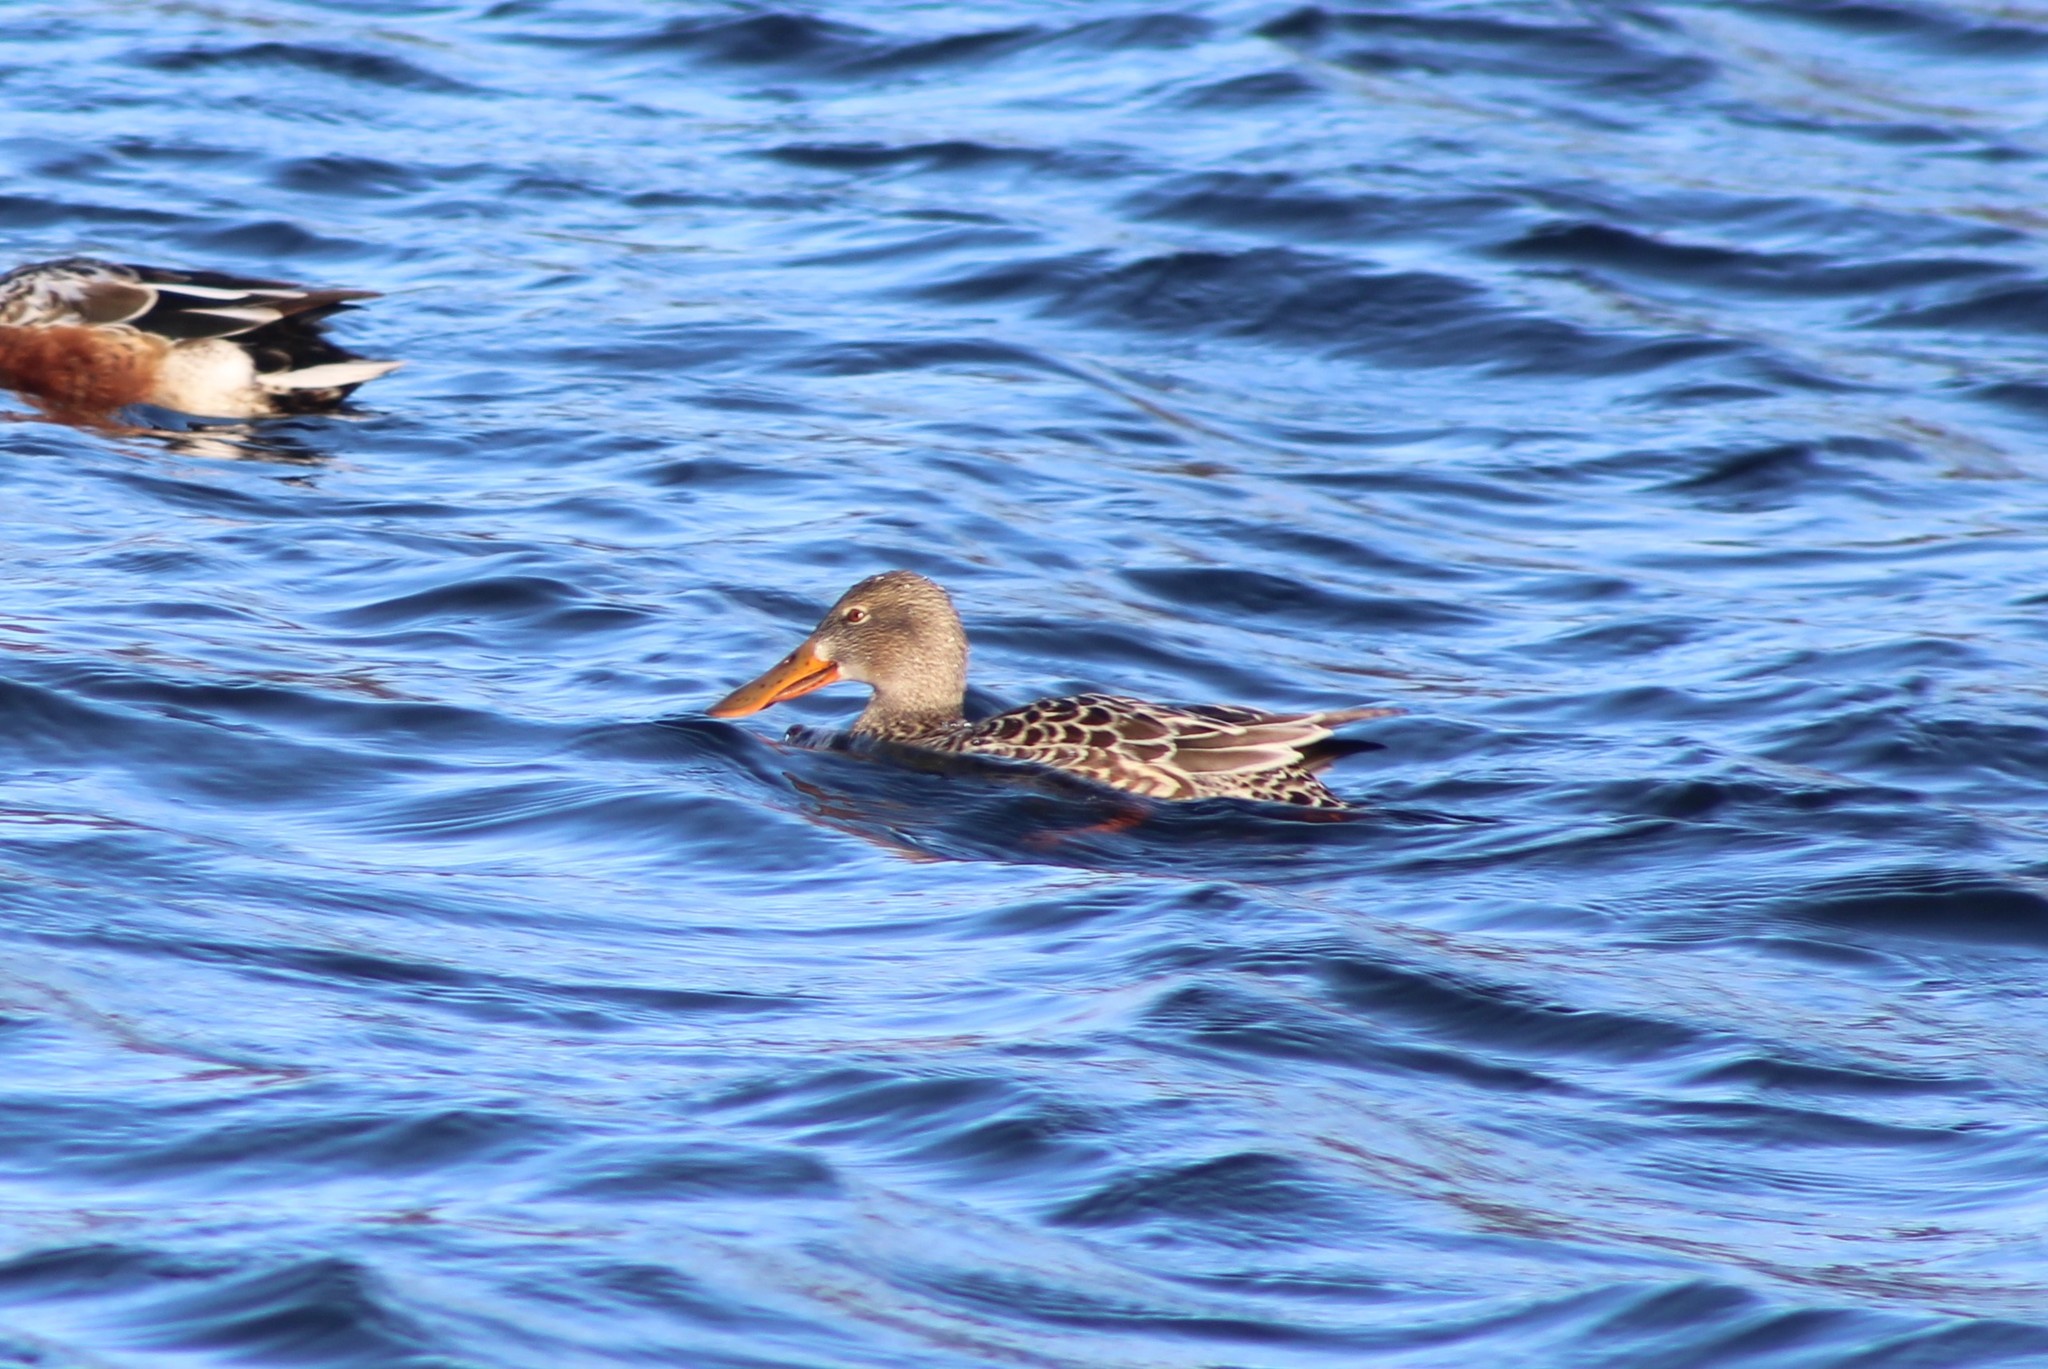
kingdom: Animalia
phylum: Chordata
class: Aves
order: Anseriformes
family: Anatidae
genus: Spatula
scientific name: Spatula clypeata
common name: Northern shoveler
